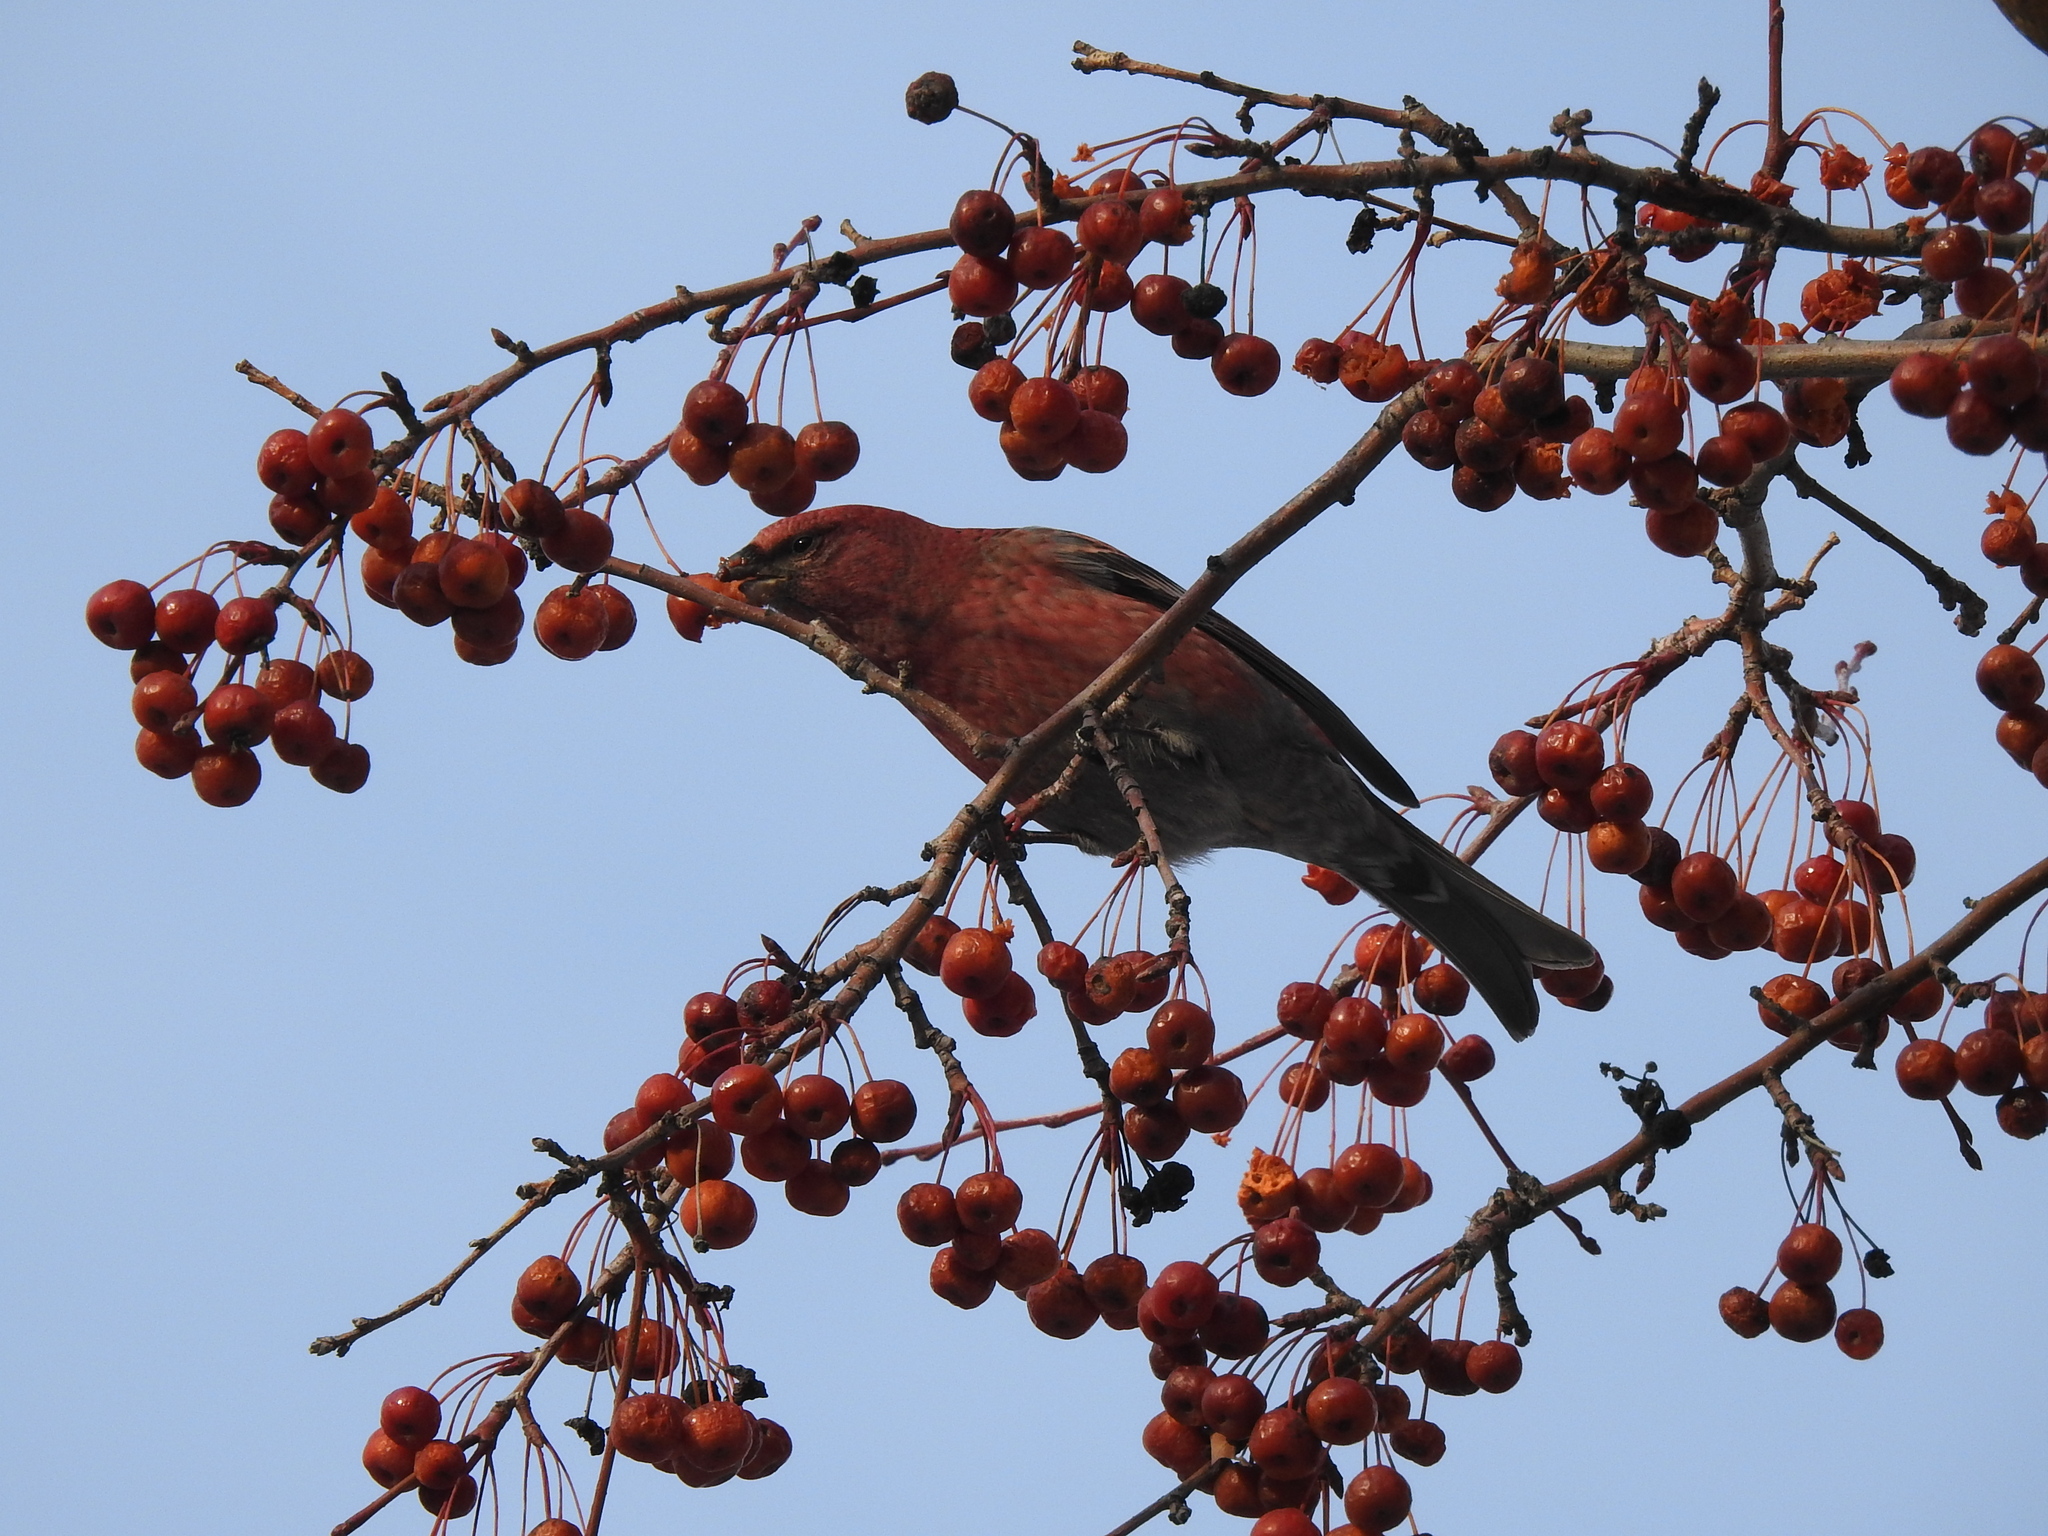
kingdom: Animalia
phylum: Chordata
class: Aves
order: Passeriformes
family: Fringillidae
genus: Pinicola
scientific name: Pinicola enucleator
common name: Pine grosbeak
